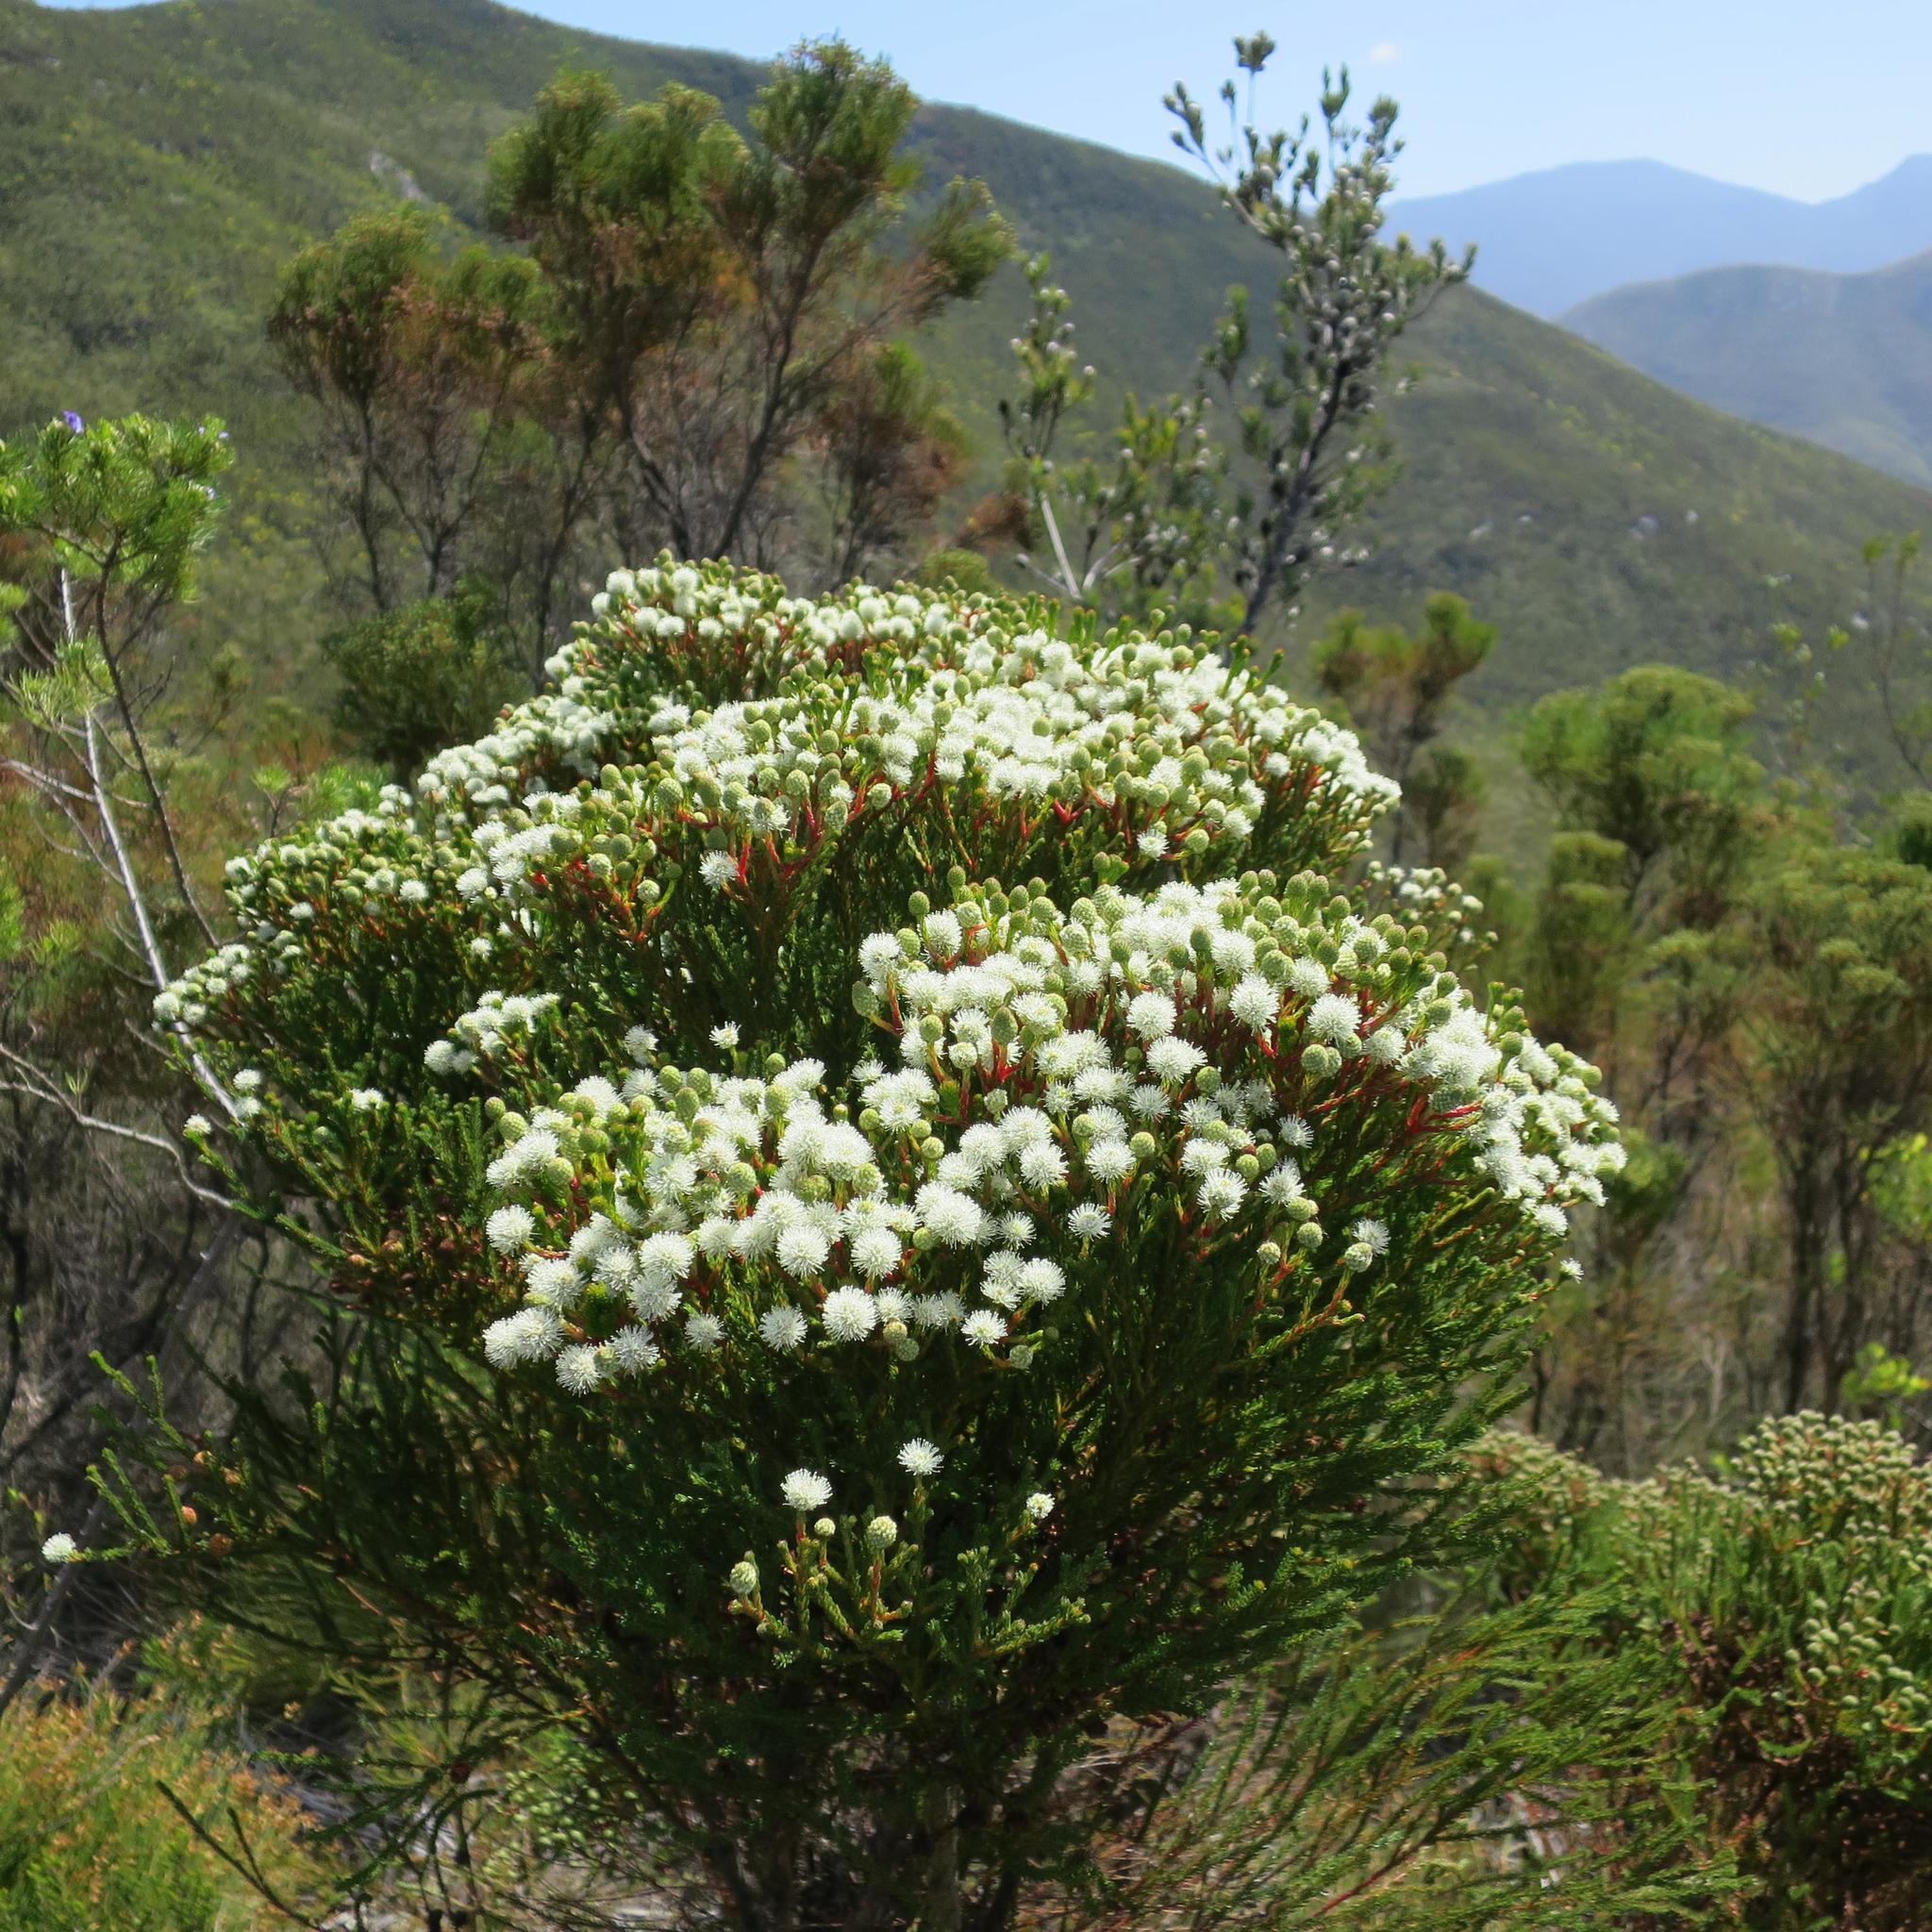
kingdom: Plantae
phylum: Tracheophyta
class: Magnoliopsida
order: Bruniales
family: Bruniaceae
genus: Berzelia
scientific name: Berzelia intermedia
